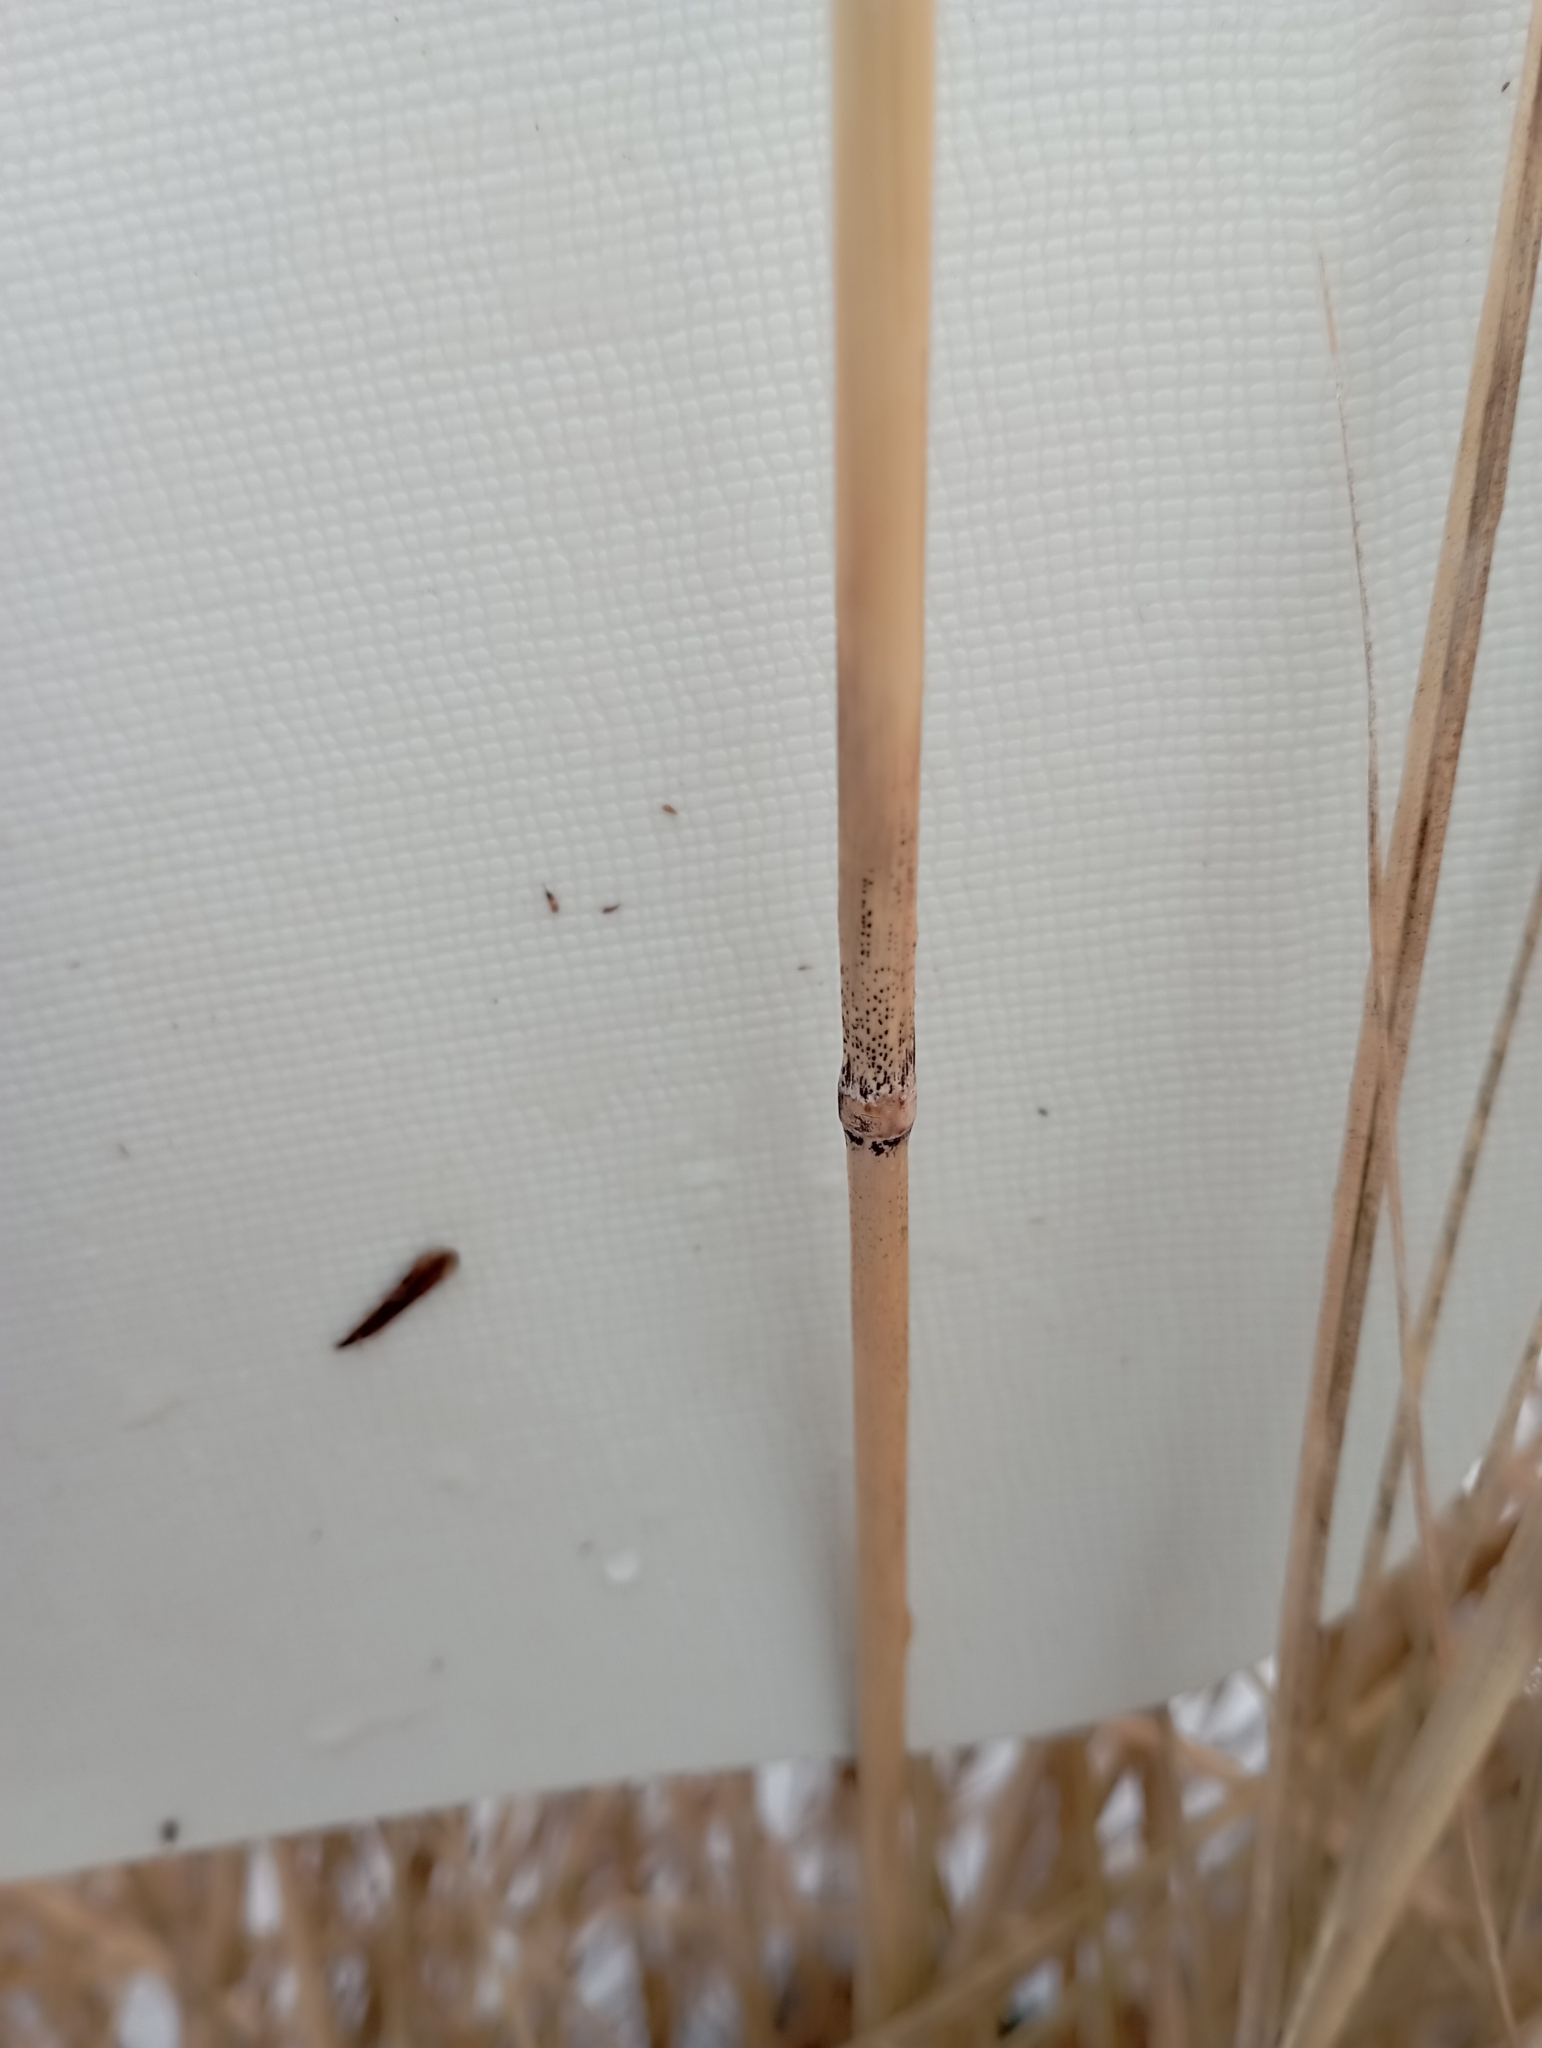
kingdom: Plantae
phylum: Tracheophyta
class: Liliopsida
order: Poales
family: Poaceae
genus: Calamagrostis
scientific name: Calamagrostis epigejos
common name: Wood small-reed
